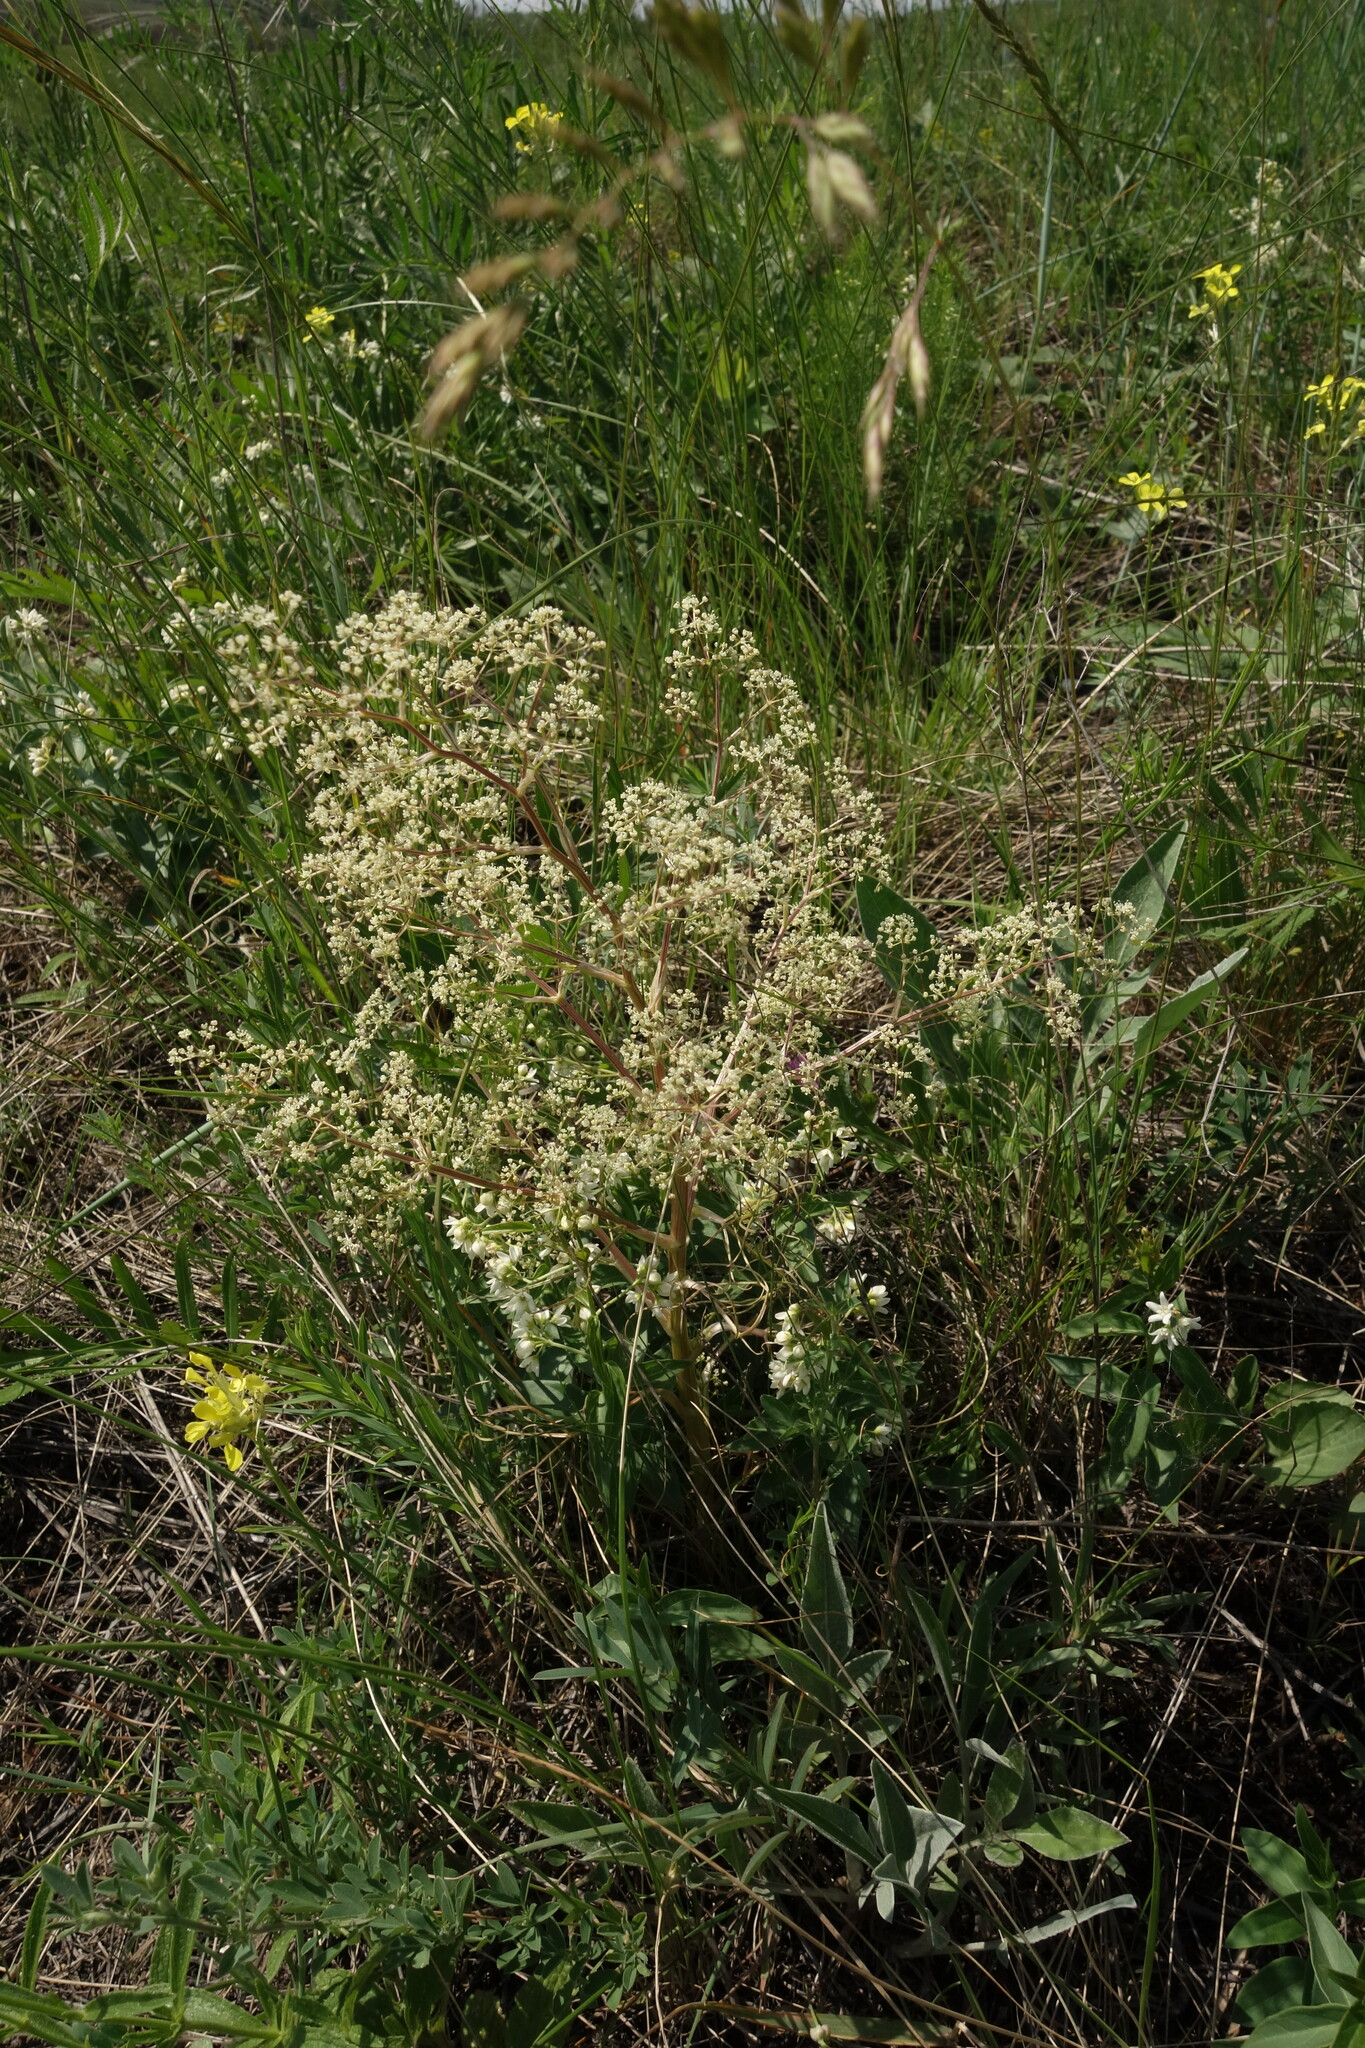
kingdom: Plantae
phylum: Tracheophyta
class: Magnoliopsida
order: Apiales
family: Apiaceae
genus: Trinia
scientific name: Trinia multicaulis
